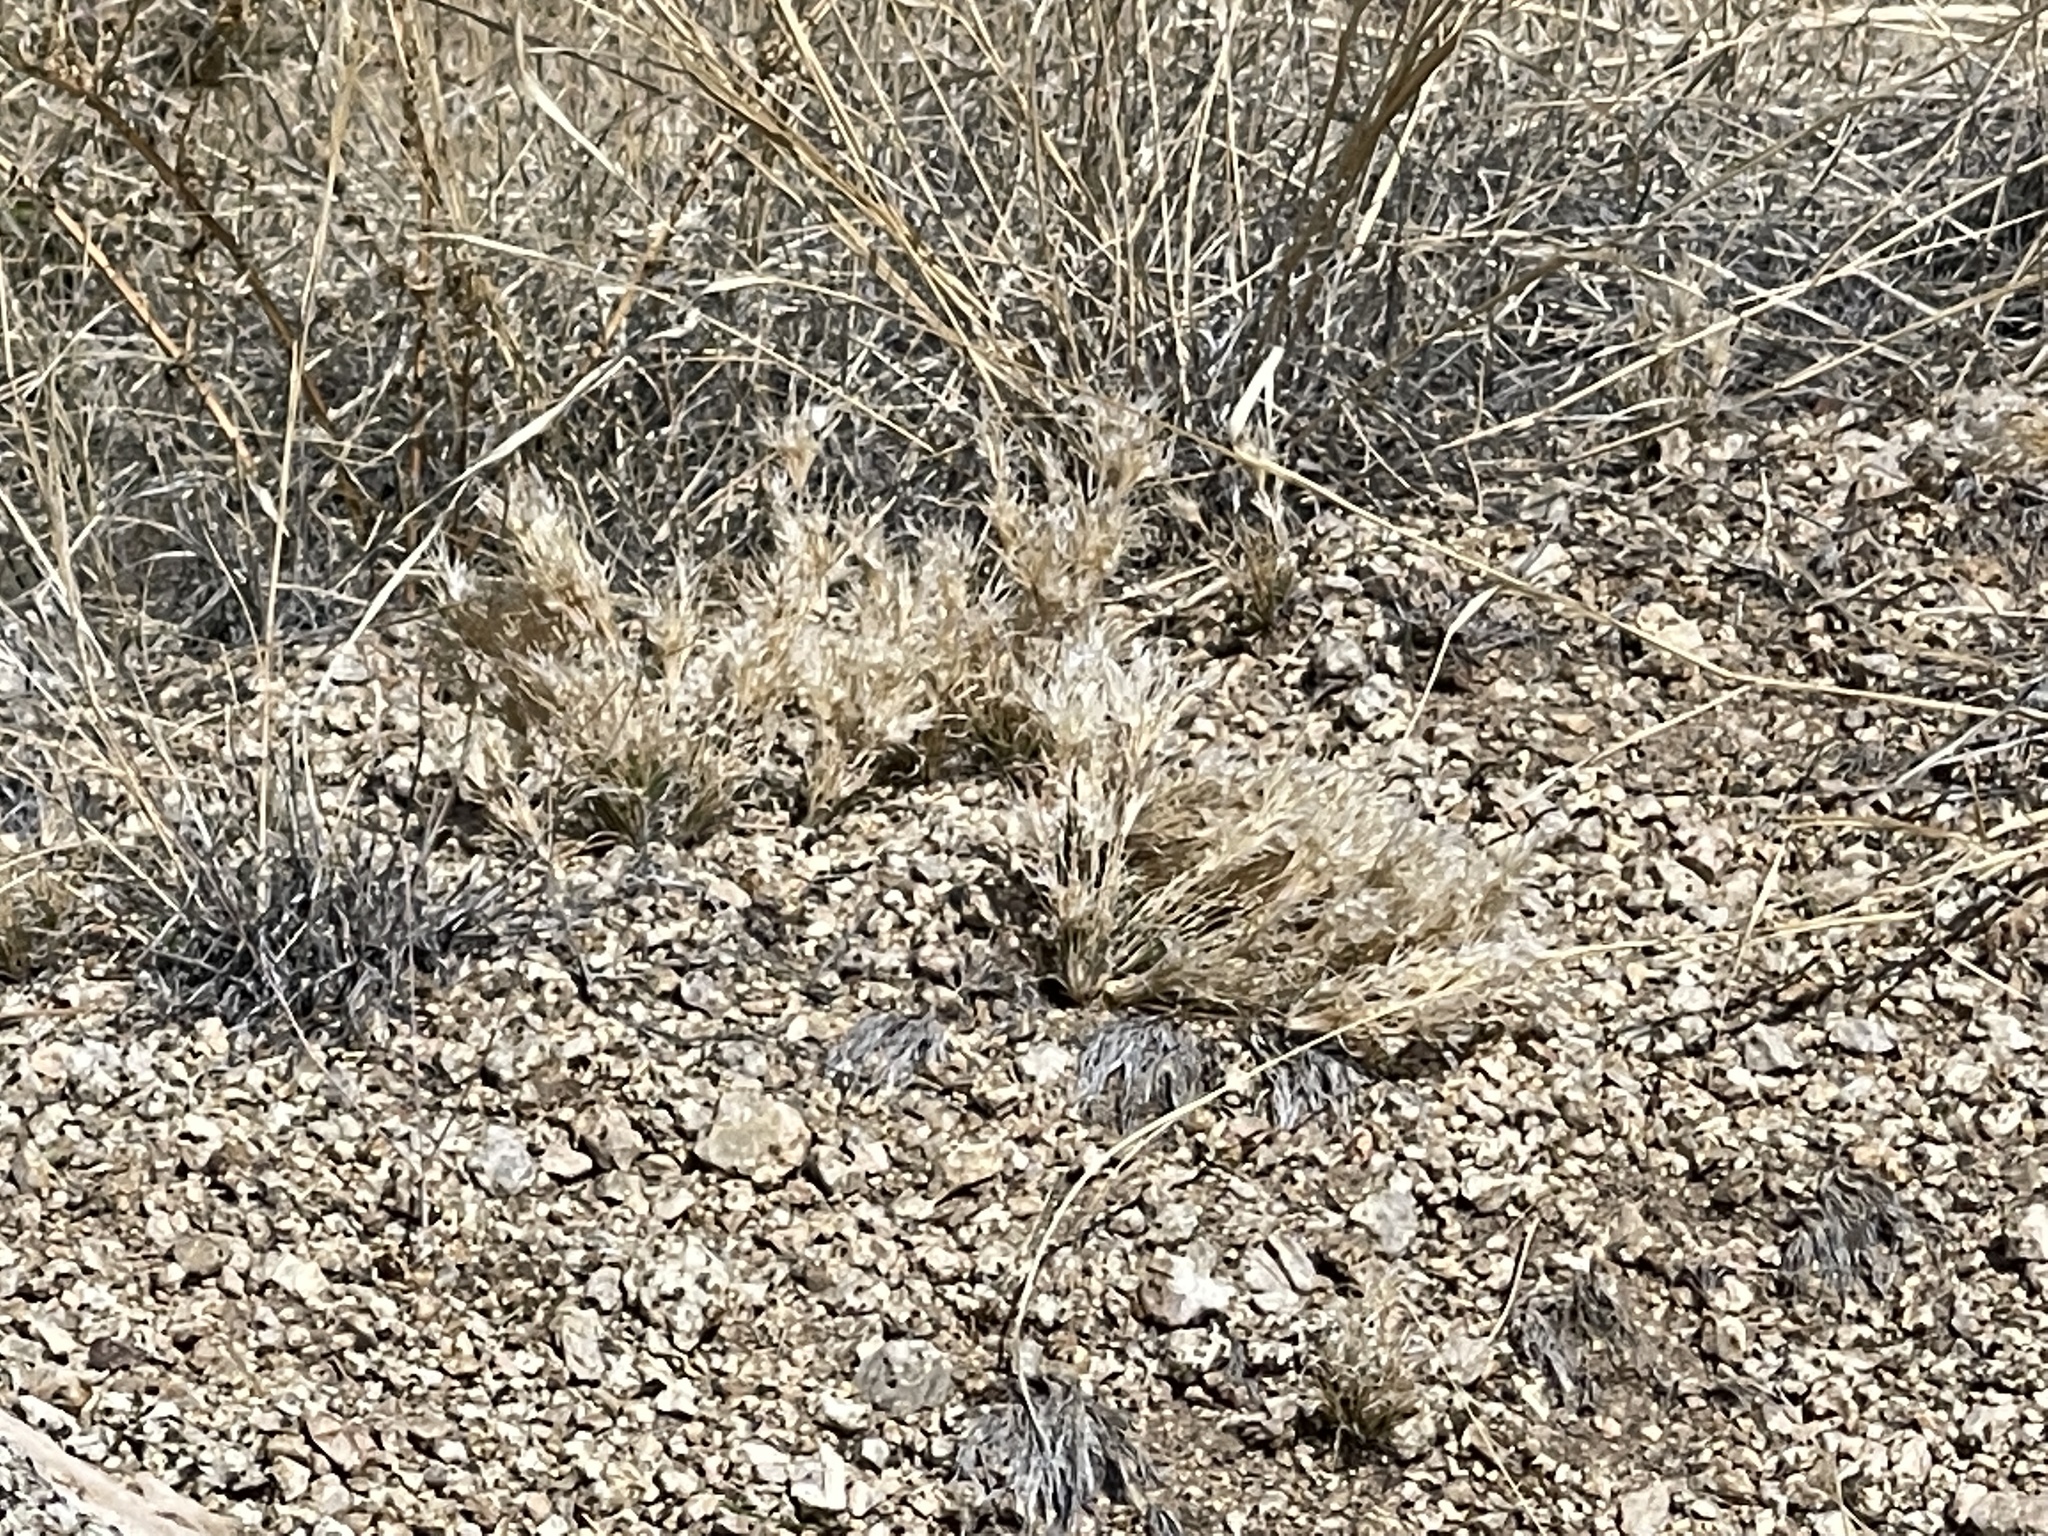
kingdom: Plantae
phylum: Tracheophyta
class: Liliopsida
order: Poales
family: Poaceae
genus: Dasyochloa
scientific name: Dasyochloa pulchella
